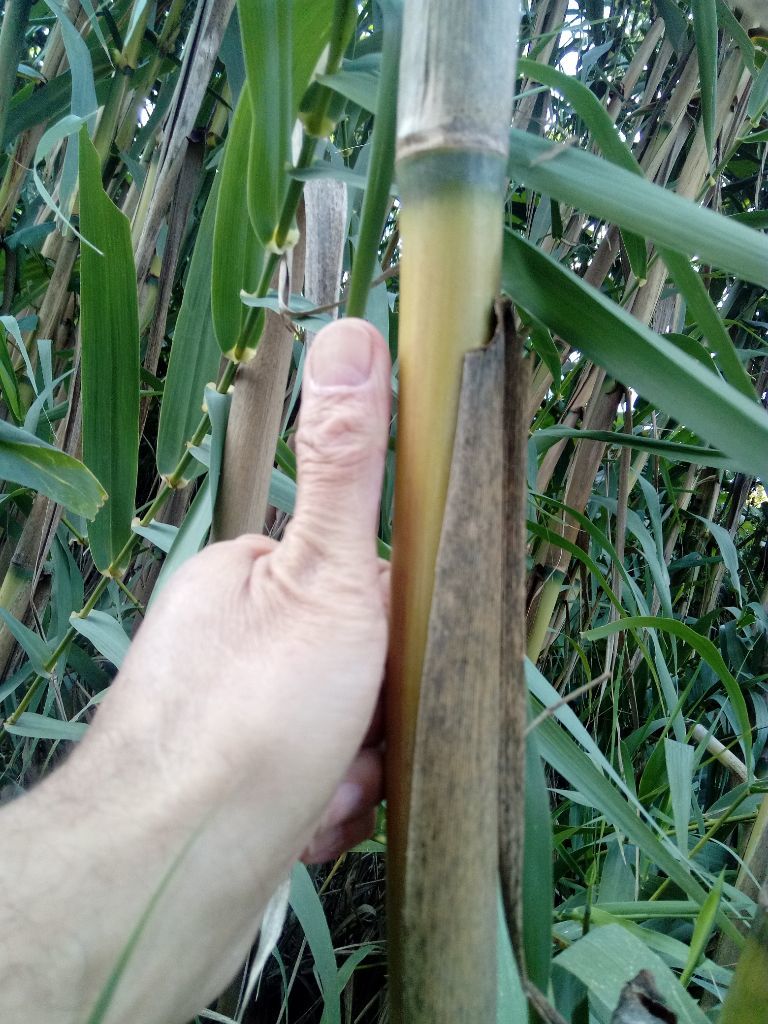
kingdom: Plantae
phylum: Tracheophyta
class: Liliopsida
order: Poales
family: Poaceae
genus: Arundo
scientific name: Arundo donax
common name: Giant reed
